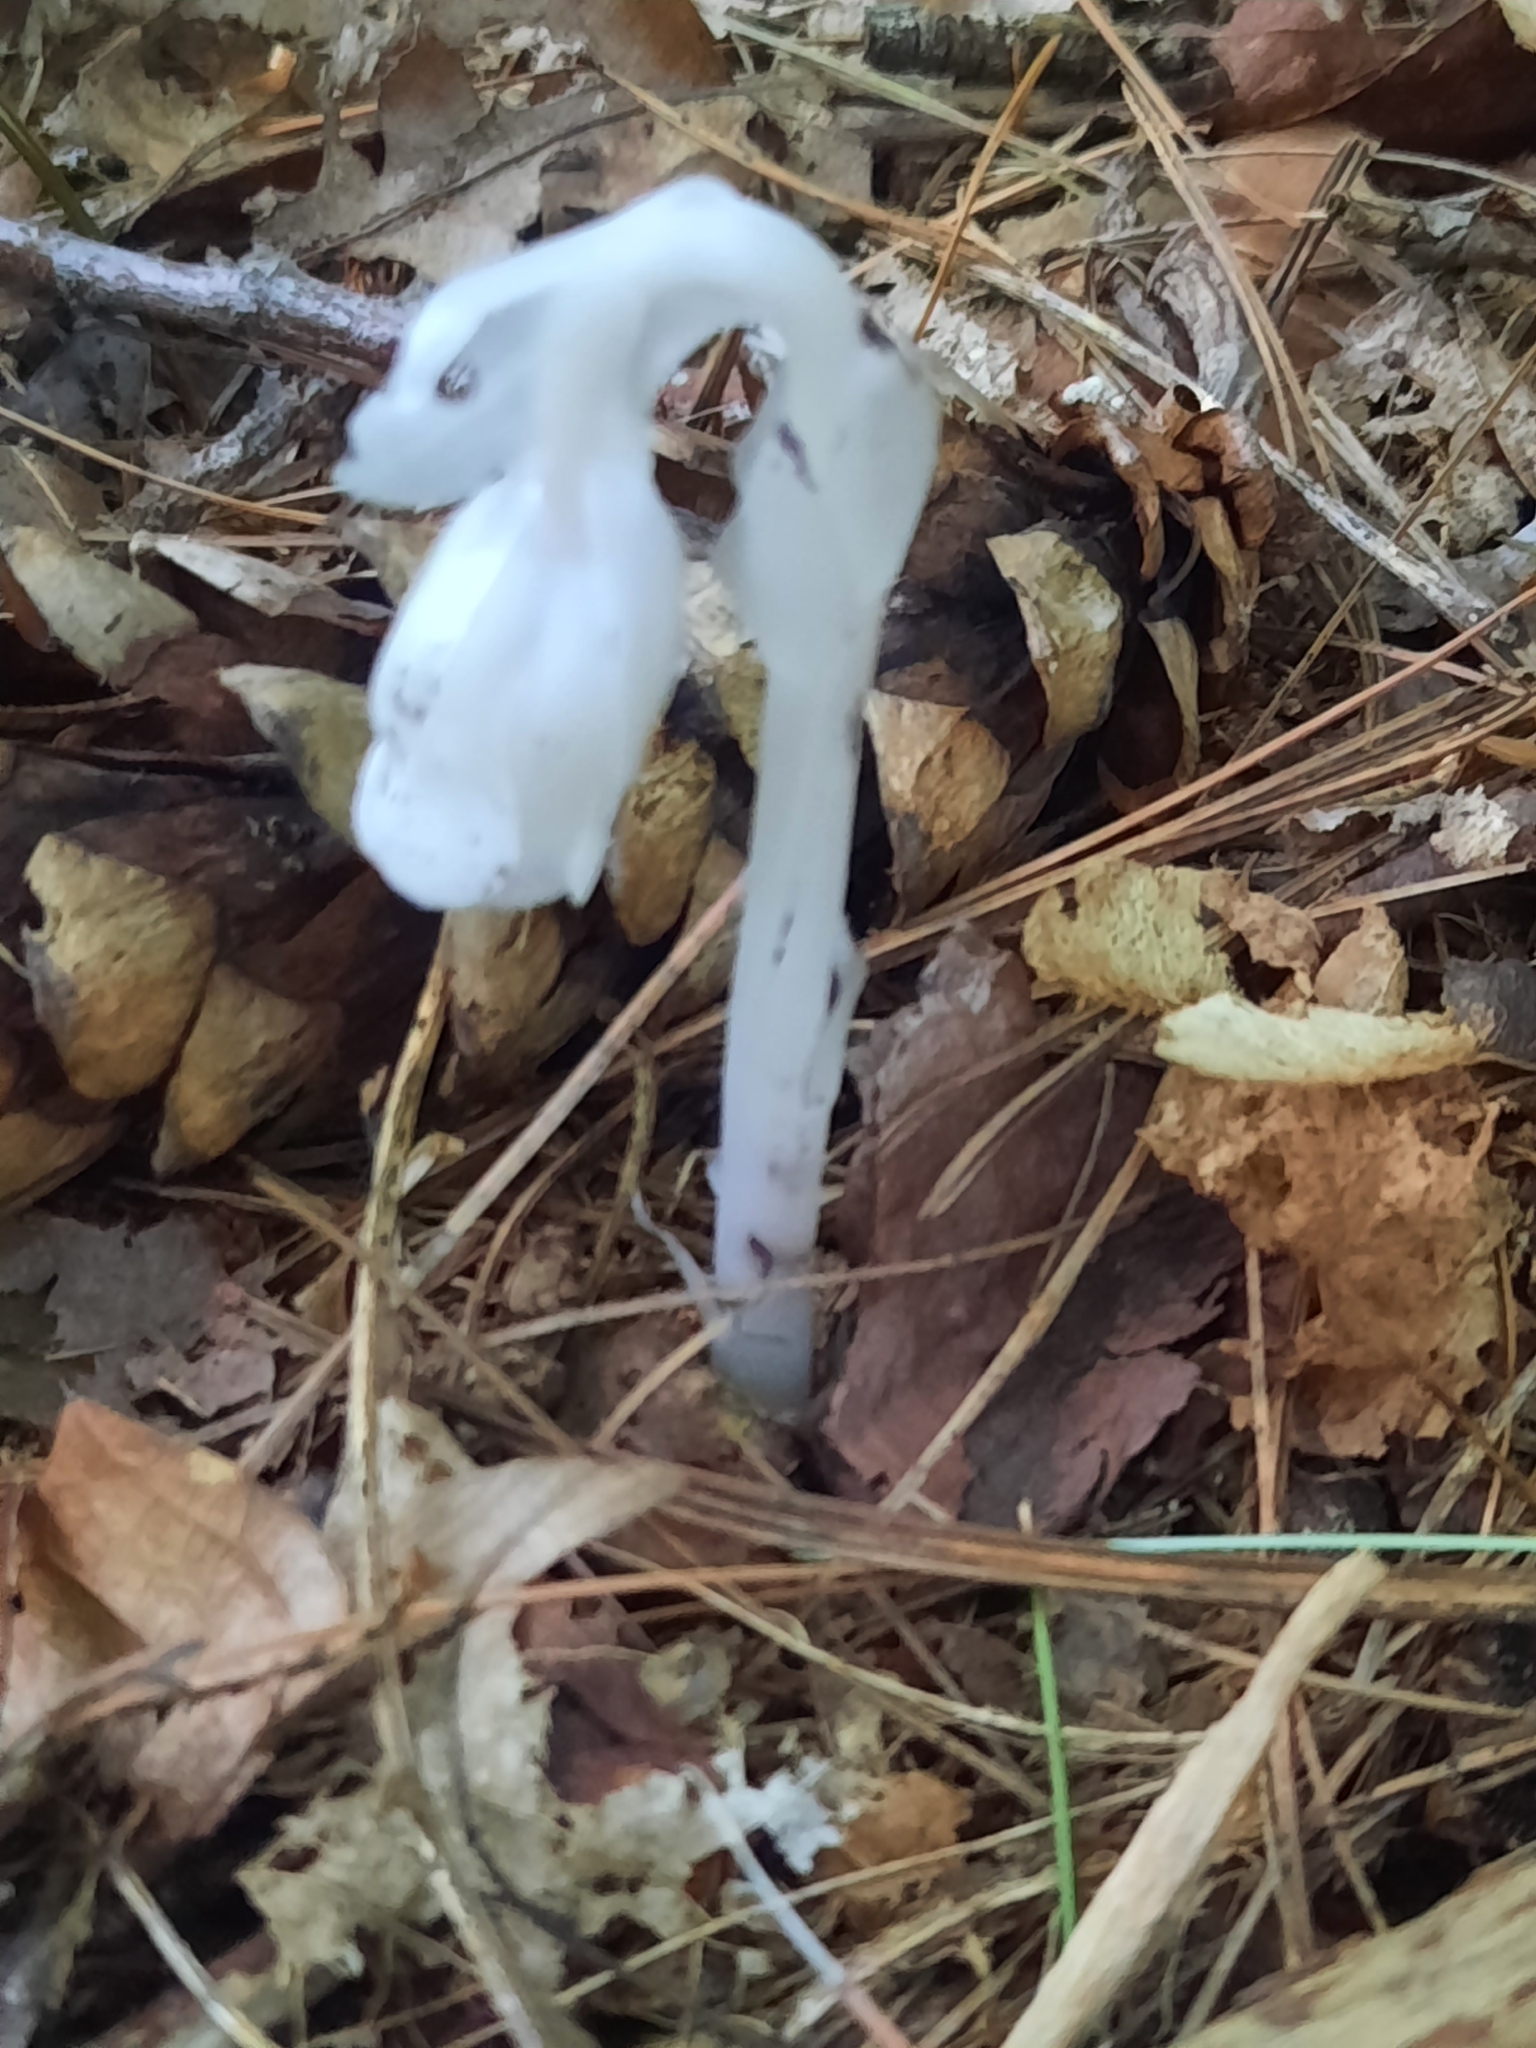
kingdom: Plantae
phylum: Tracheophyta
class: Magnoliopsida
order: Ericales
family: Ericaceae
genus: Monotropa
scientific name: Monotropa uniflora
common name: Convulsion root
